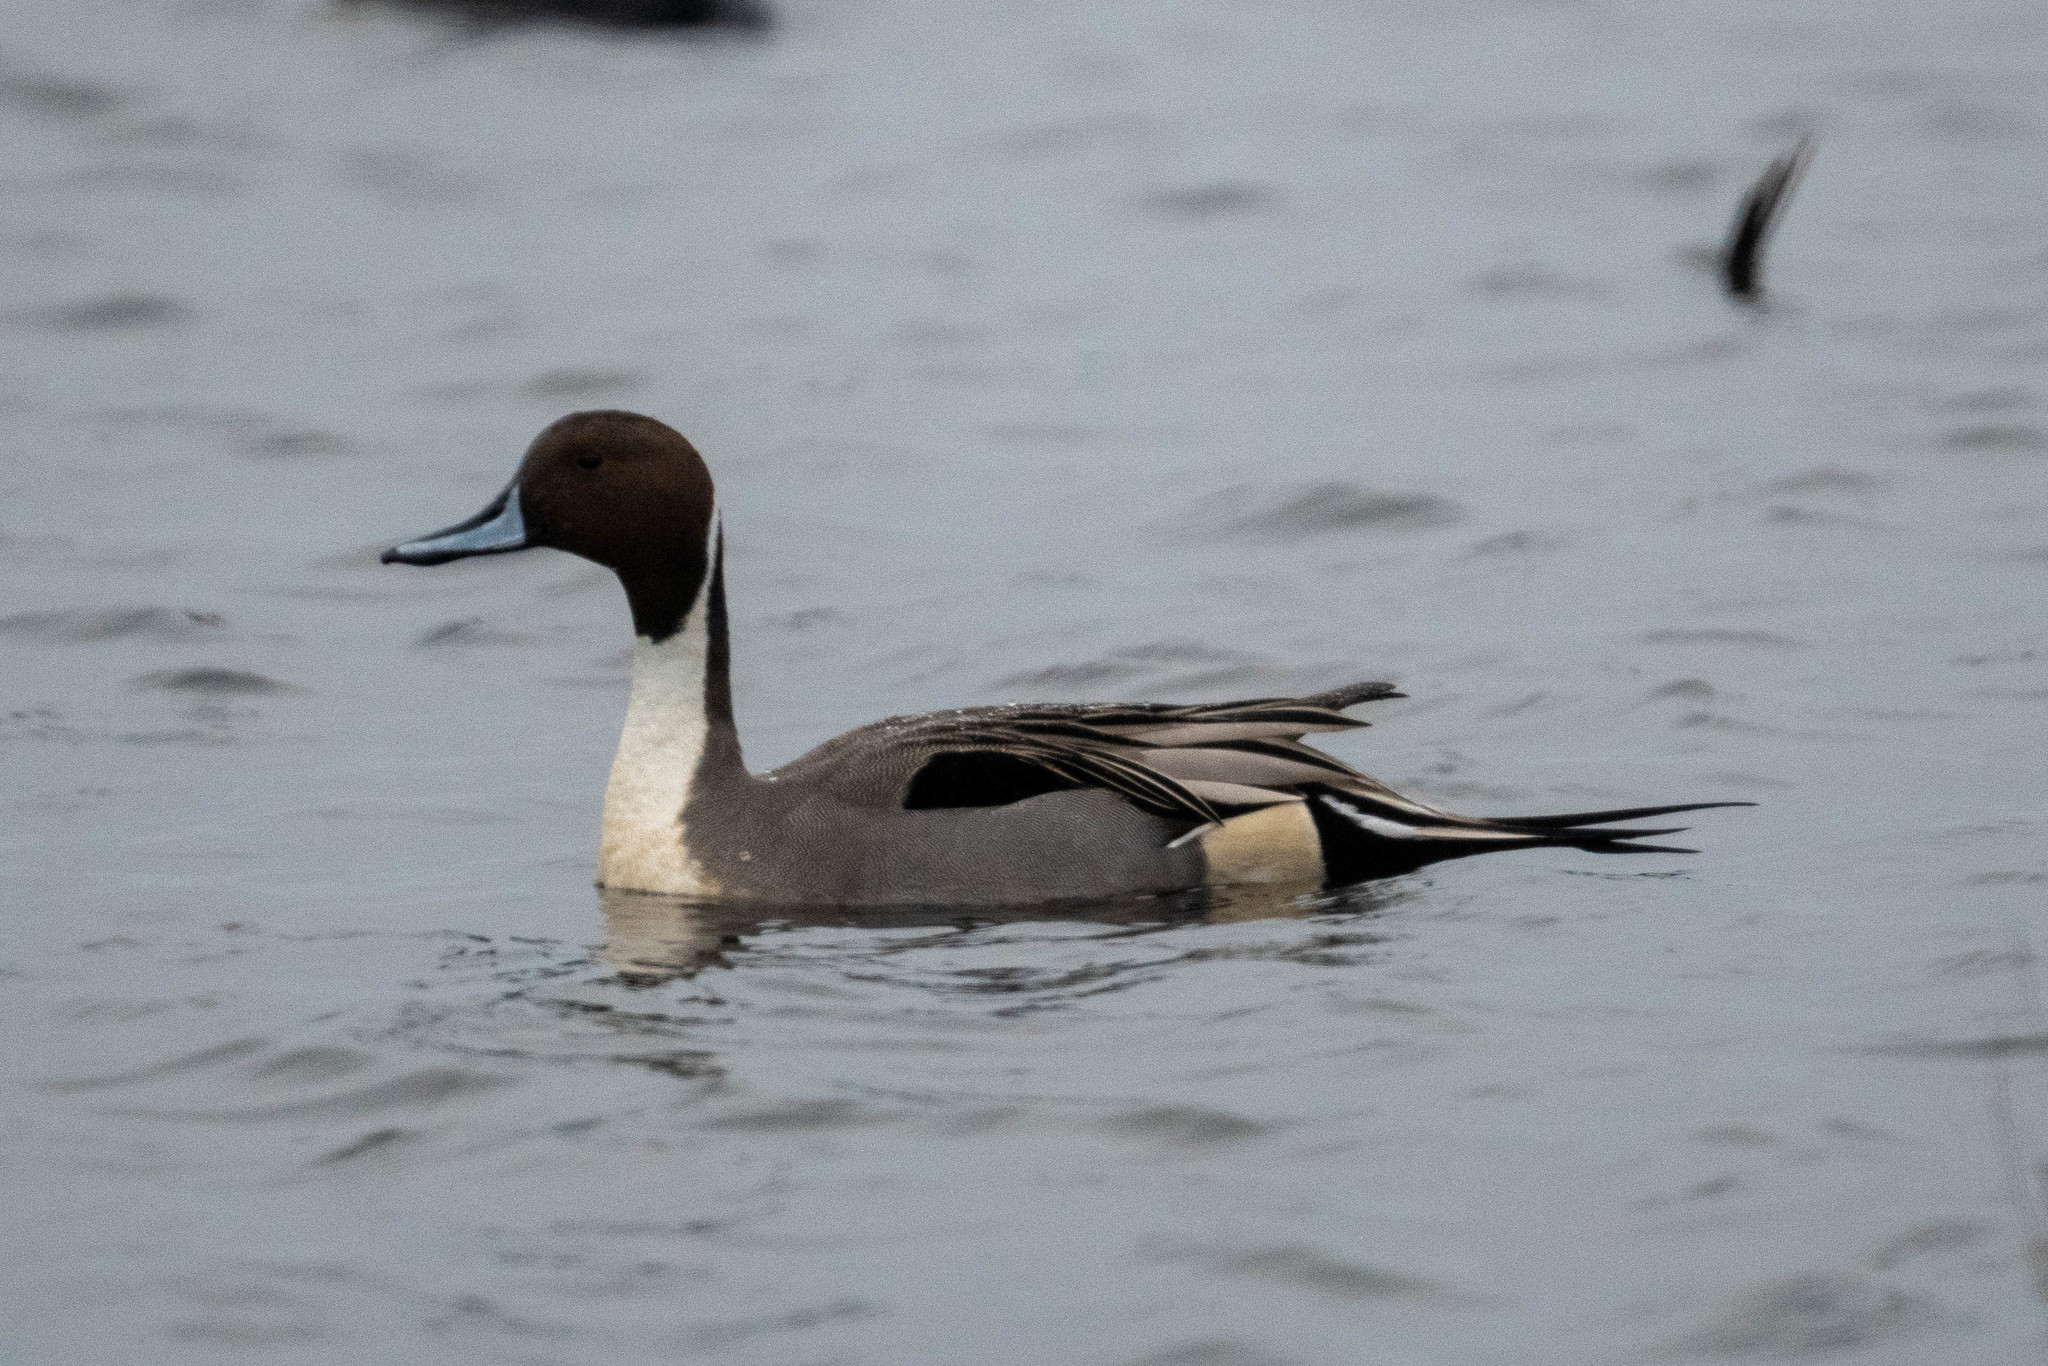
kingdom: Animalia
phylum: Chordata
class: Aves
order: Anseriformes
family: Anatidae
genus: Anas
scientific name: Anas acuta
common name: Northern pintail
